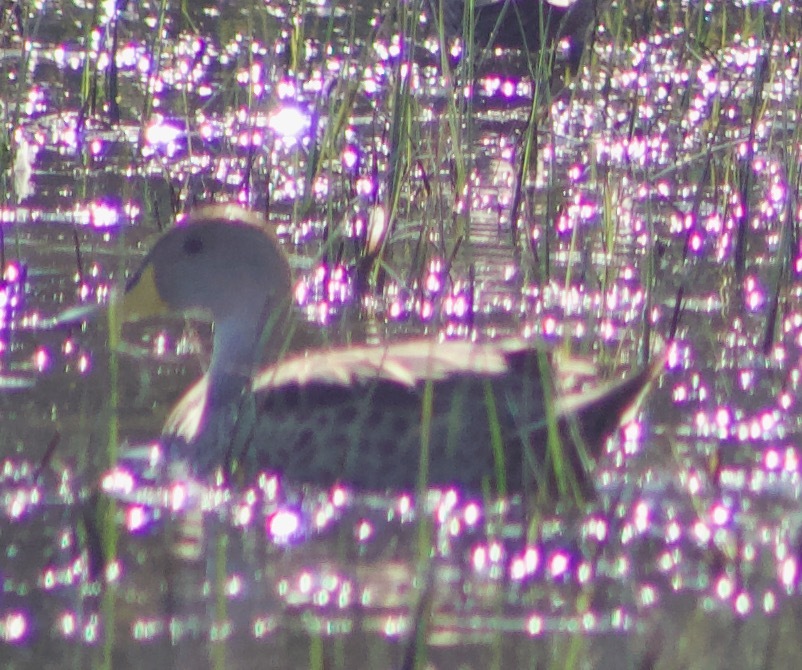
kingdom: Animalia
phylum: Chordata
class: Aves
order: Anseriformes
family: Anatidae
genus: Anas
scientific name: Anas georgica
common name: Yellow-billed pintail
